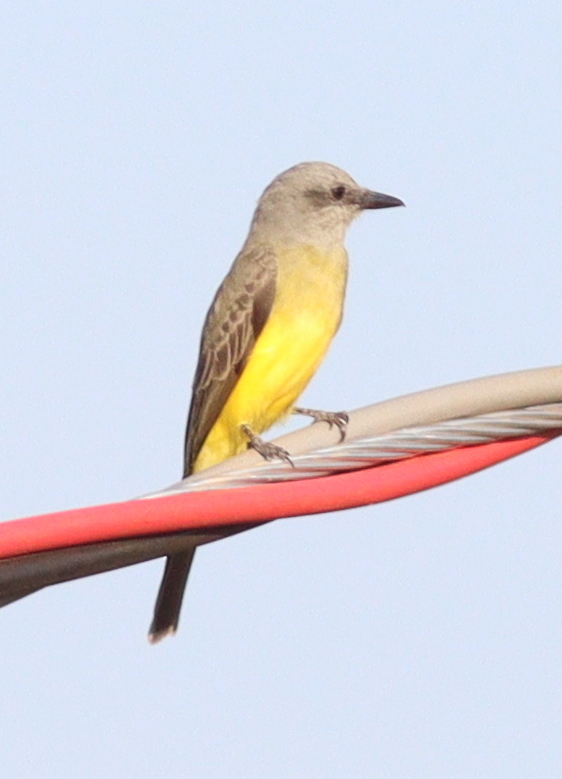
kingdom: Animalia
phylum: Chordata
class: Aves
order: Passeriformes
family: Tyrannidae
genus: Tyrannus
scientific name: Tyrannus melancholicus
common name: Tropical kingbird
